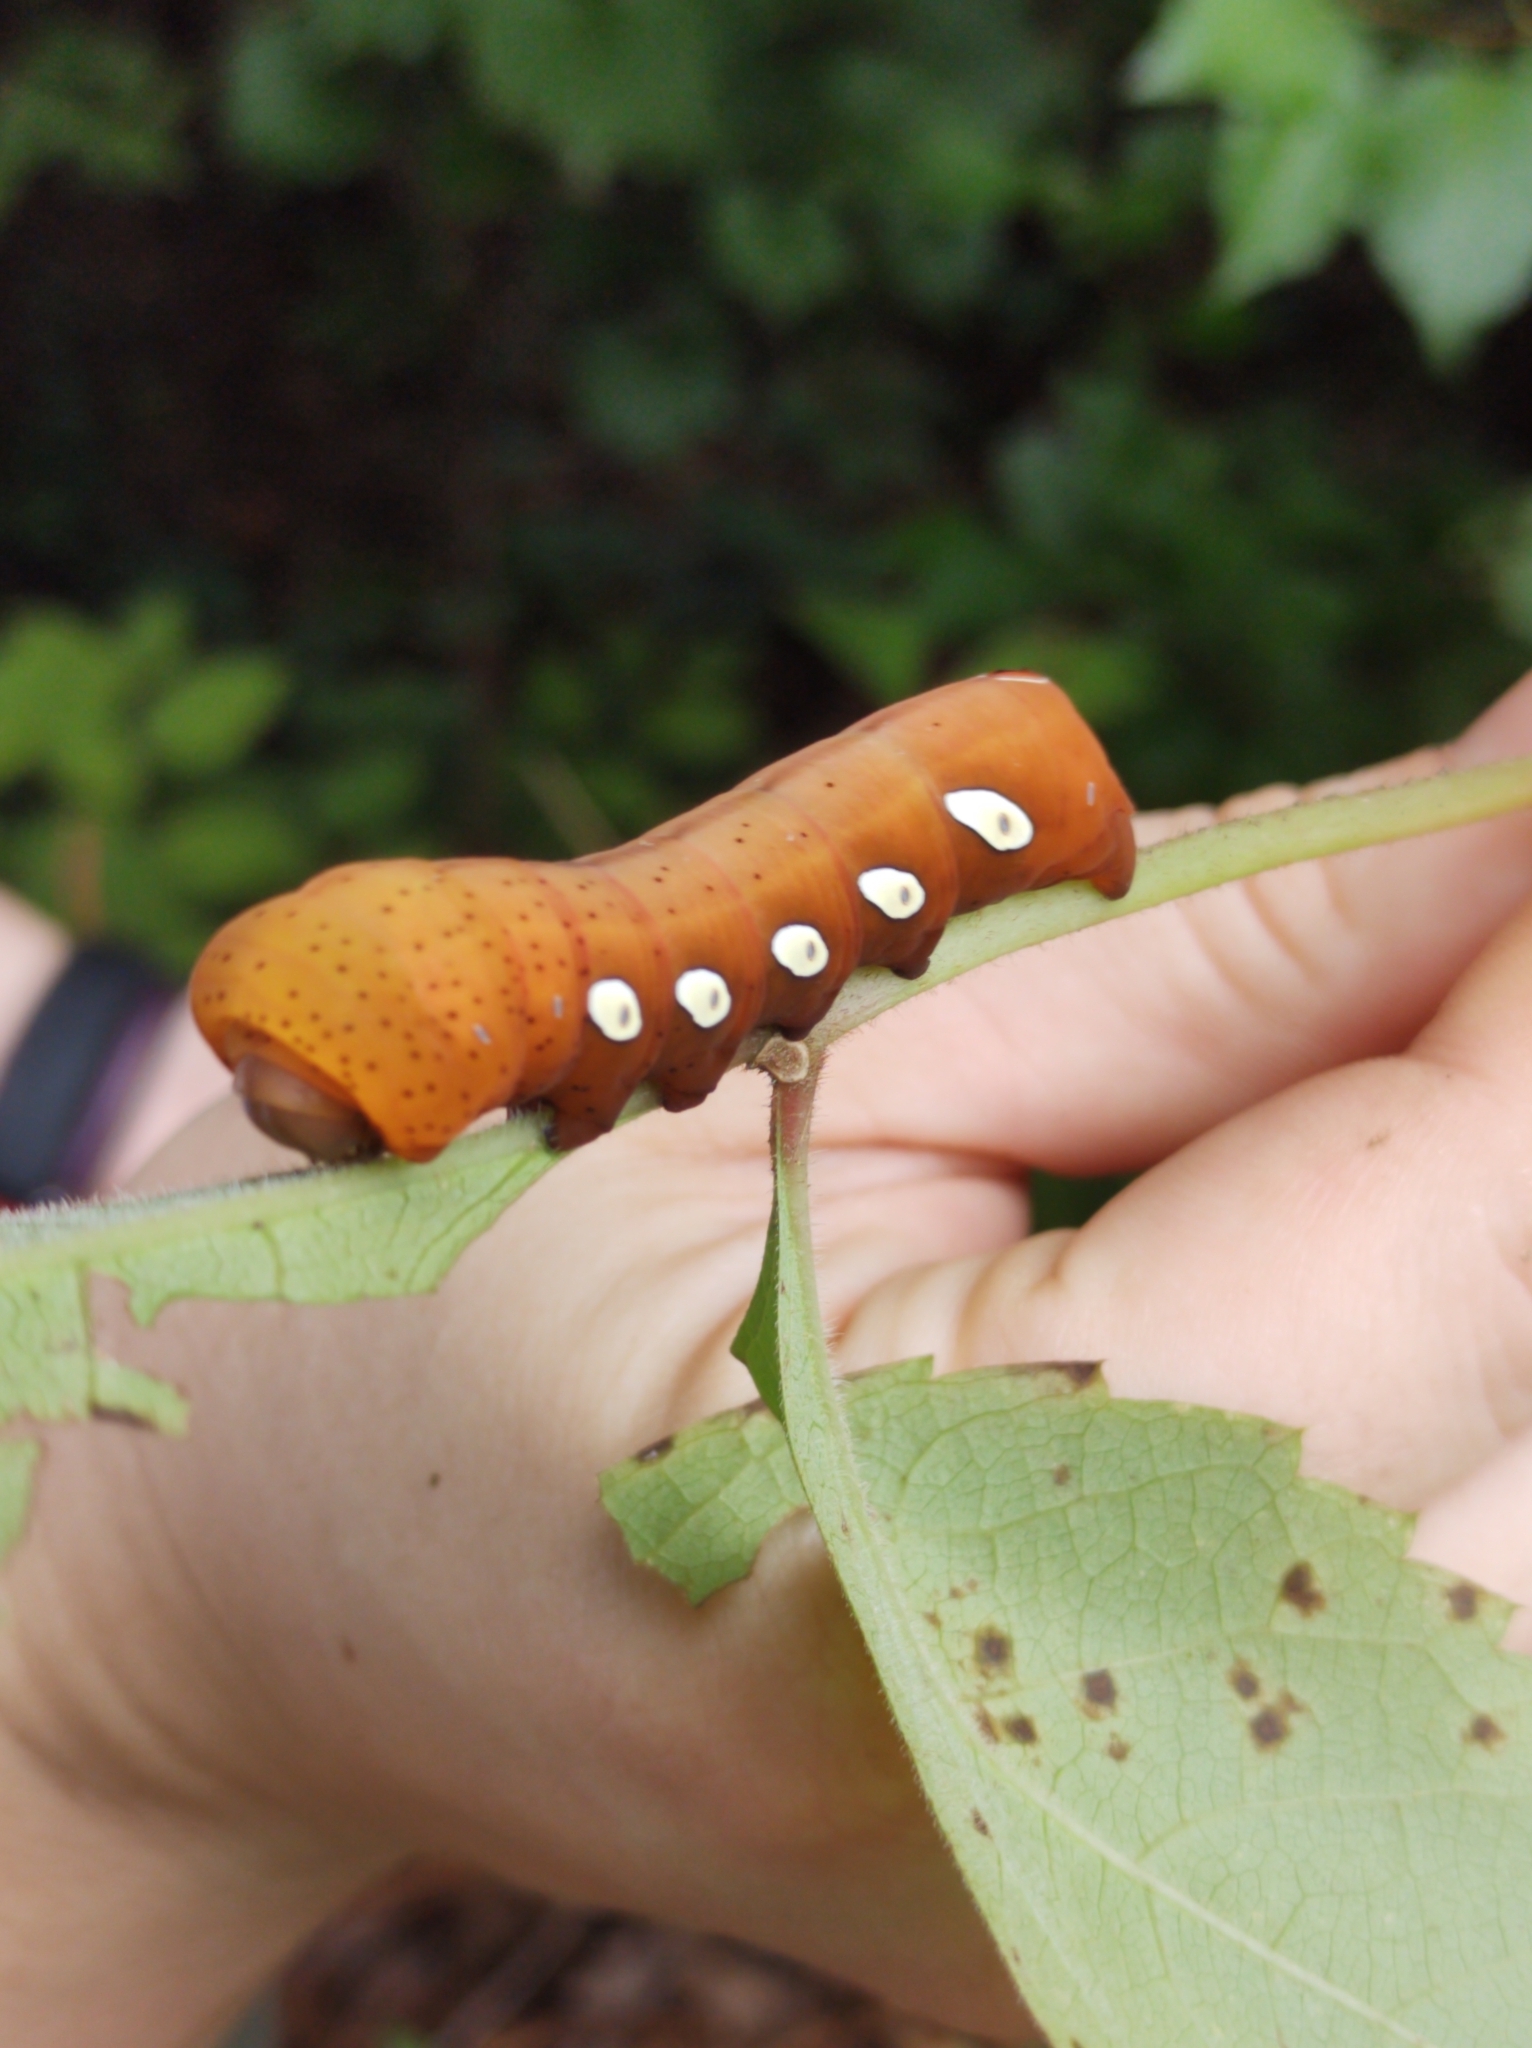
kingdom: Animalia
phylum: Arthropoda
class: Insecta
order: Lepidoptera
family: Sphingidae
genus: Eumorpha
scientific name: Eumorpha pandorus
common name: Pandora sphinx
